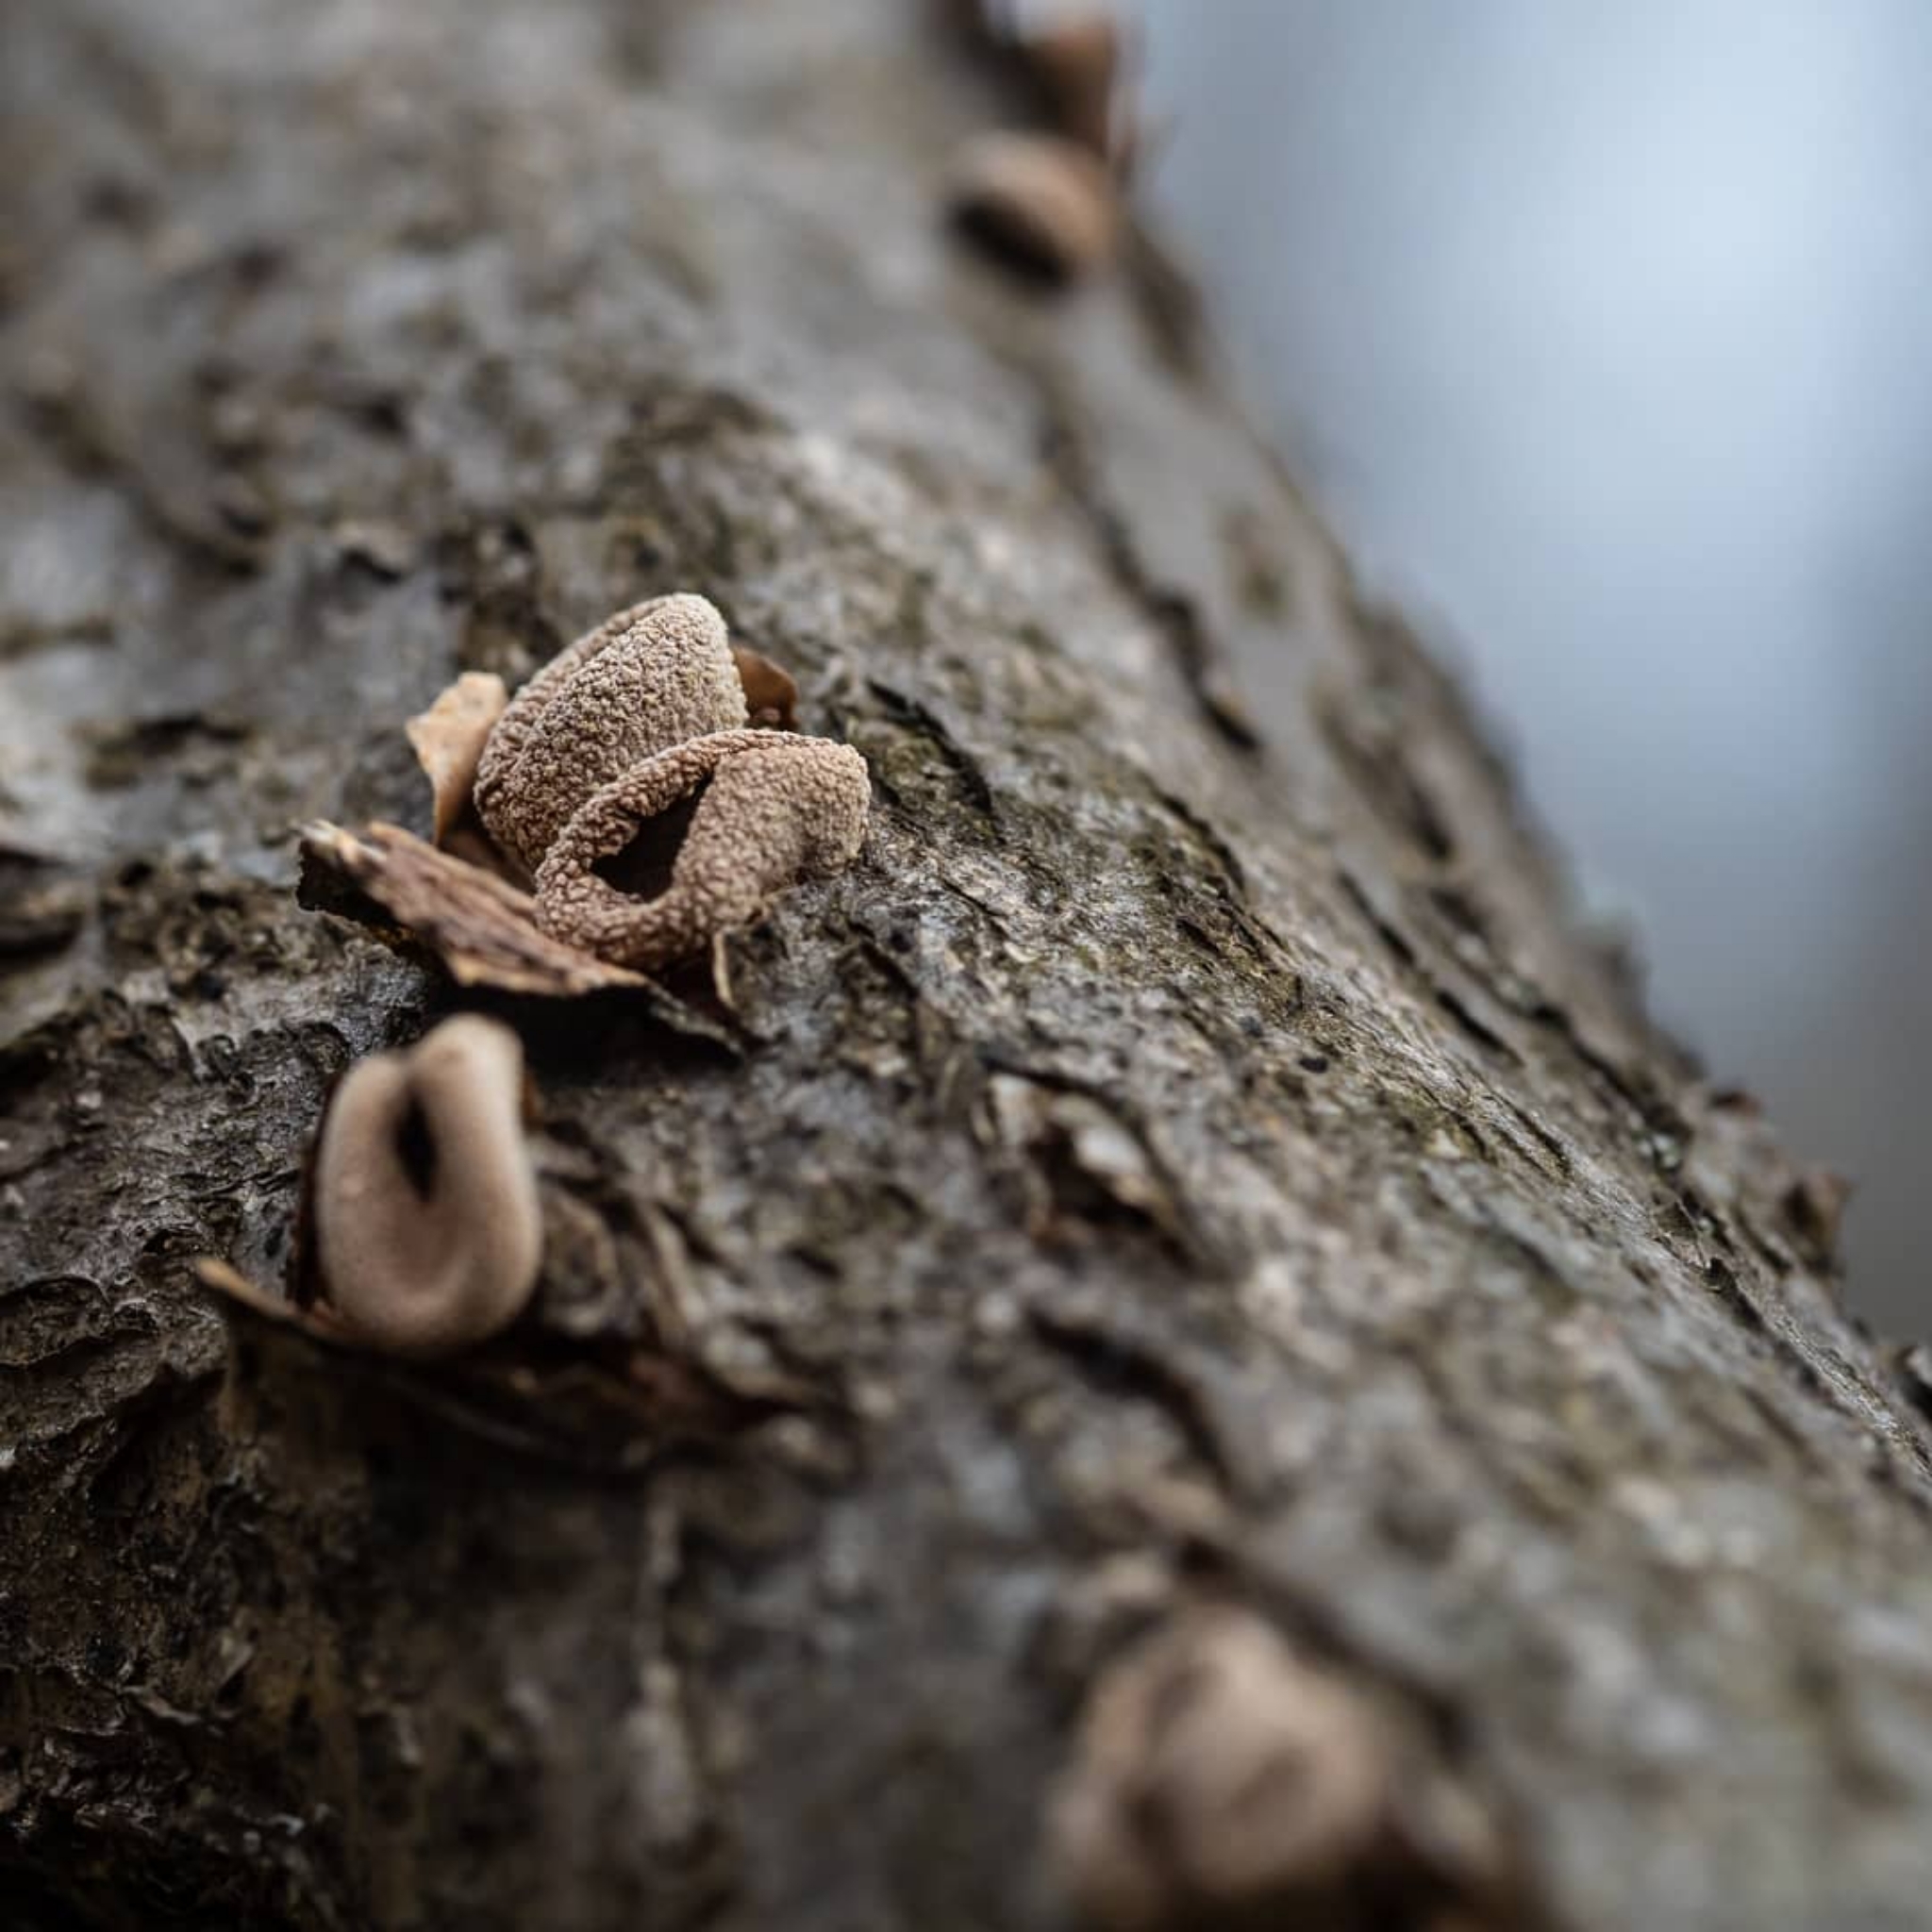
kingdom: Fungi
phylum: Ascomycota
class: Leotiomycetes
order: Helotiales
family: Cenangiaceae
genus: Encoelia
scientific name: Encoelia furfuracea
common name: Spring hazelcup
